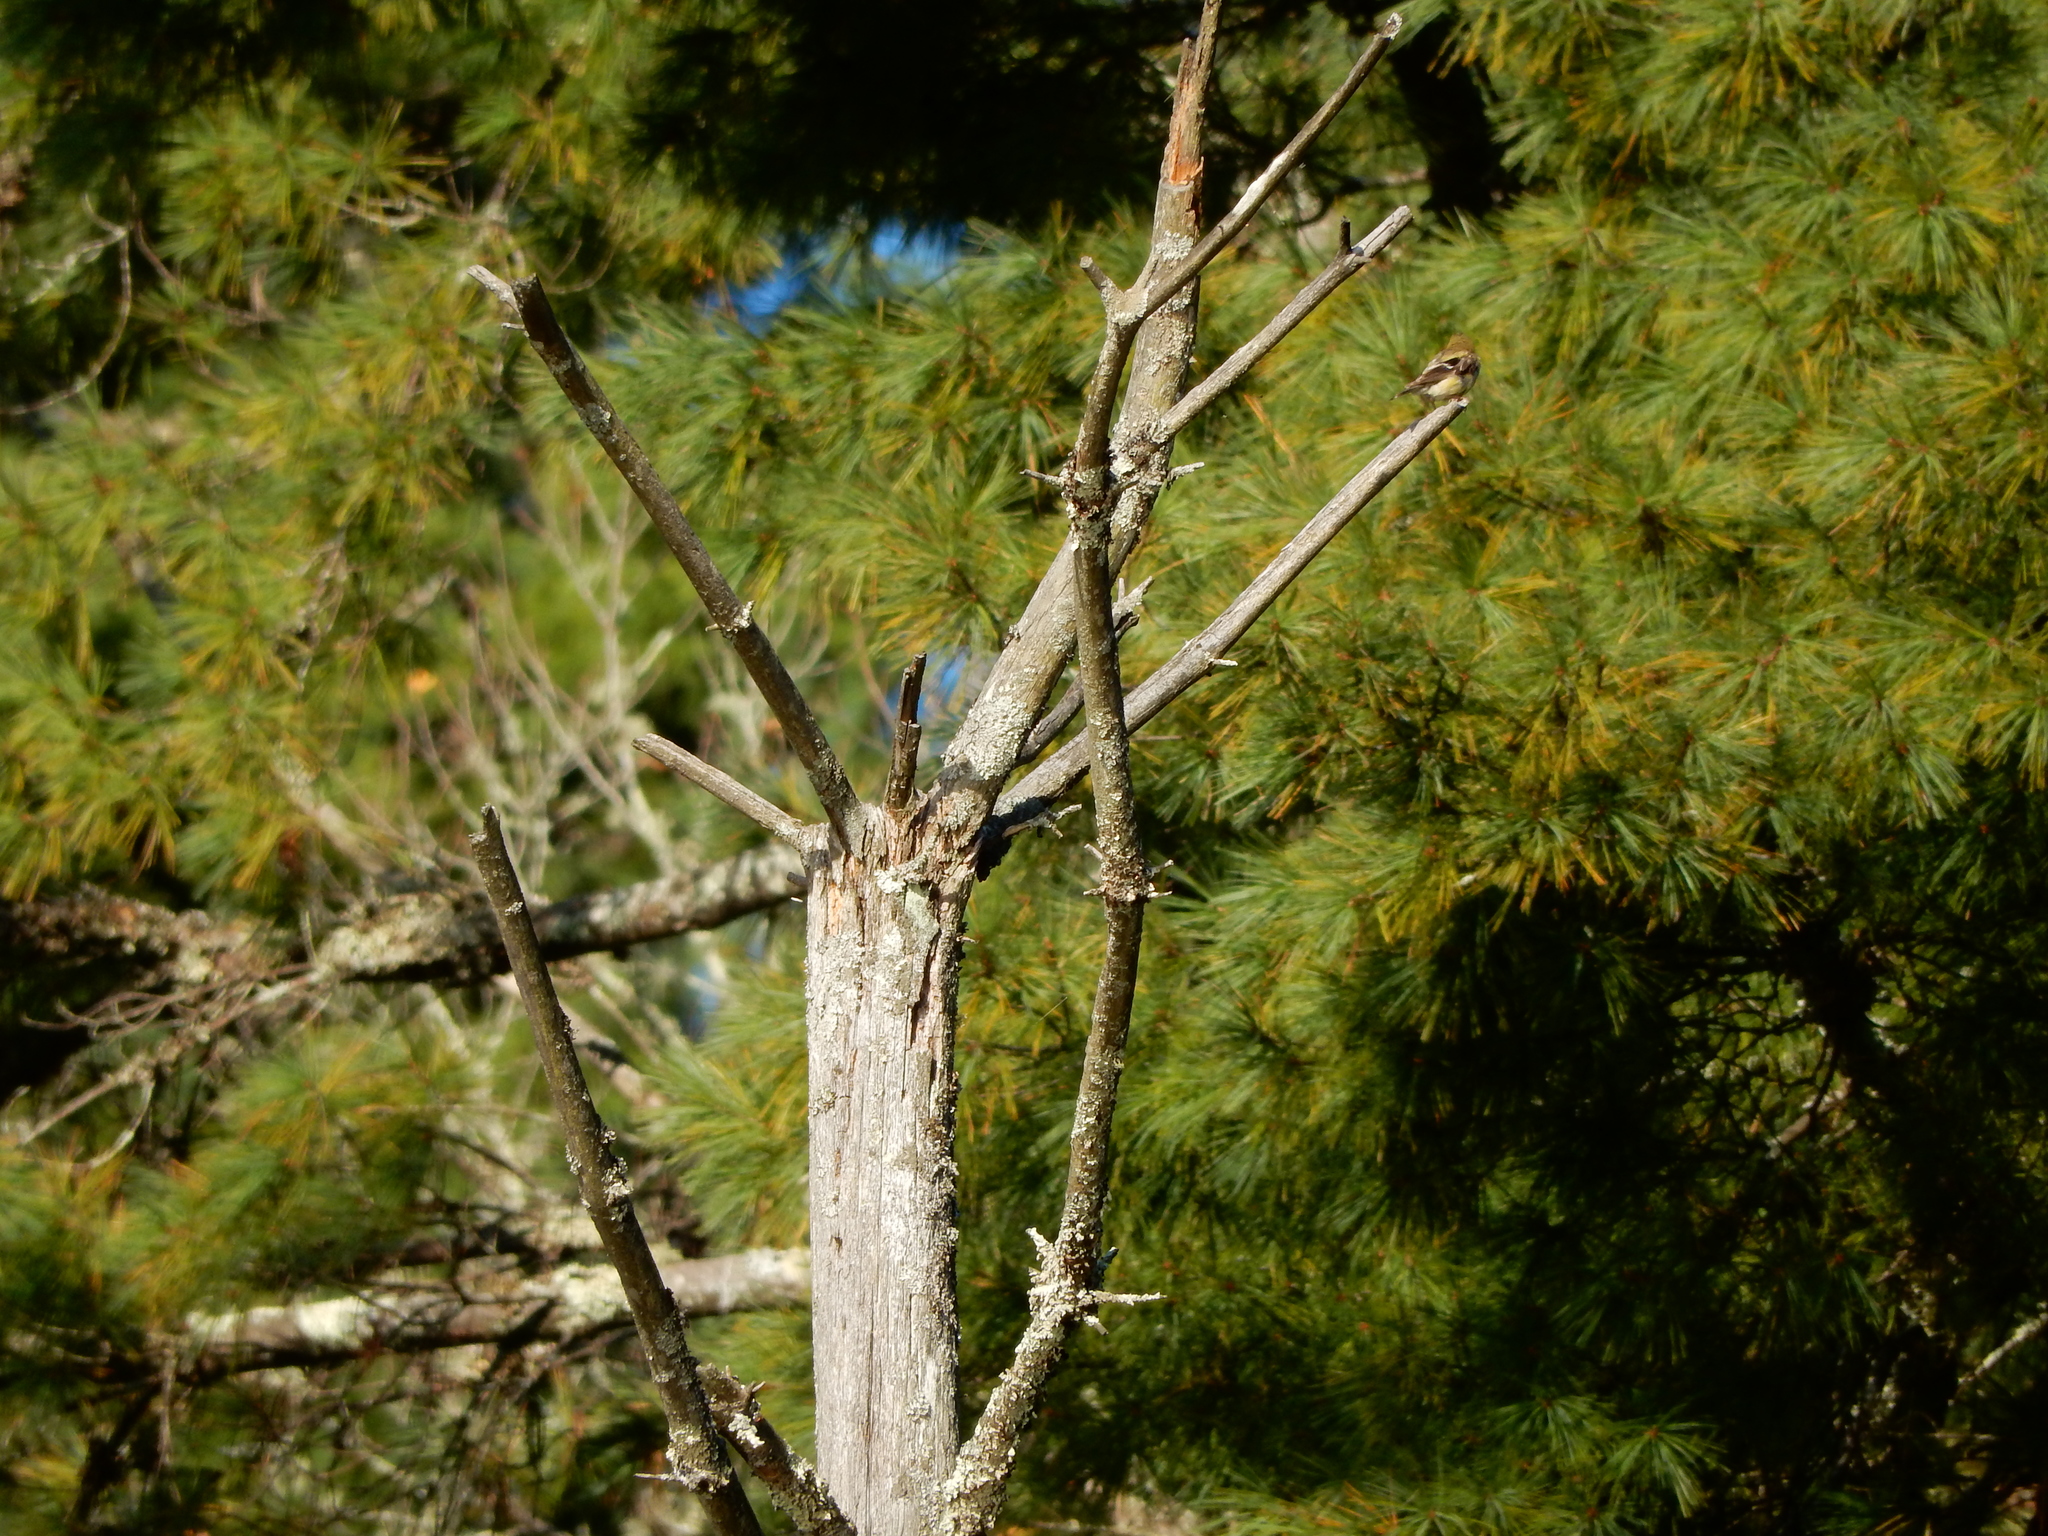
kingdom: Animalia
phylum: Chordata
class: Aves
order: Passeriformes
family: Fringillidae
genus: Spinus
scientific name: Spinus tristis
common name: American goldfinch
